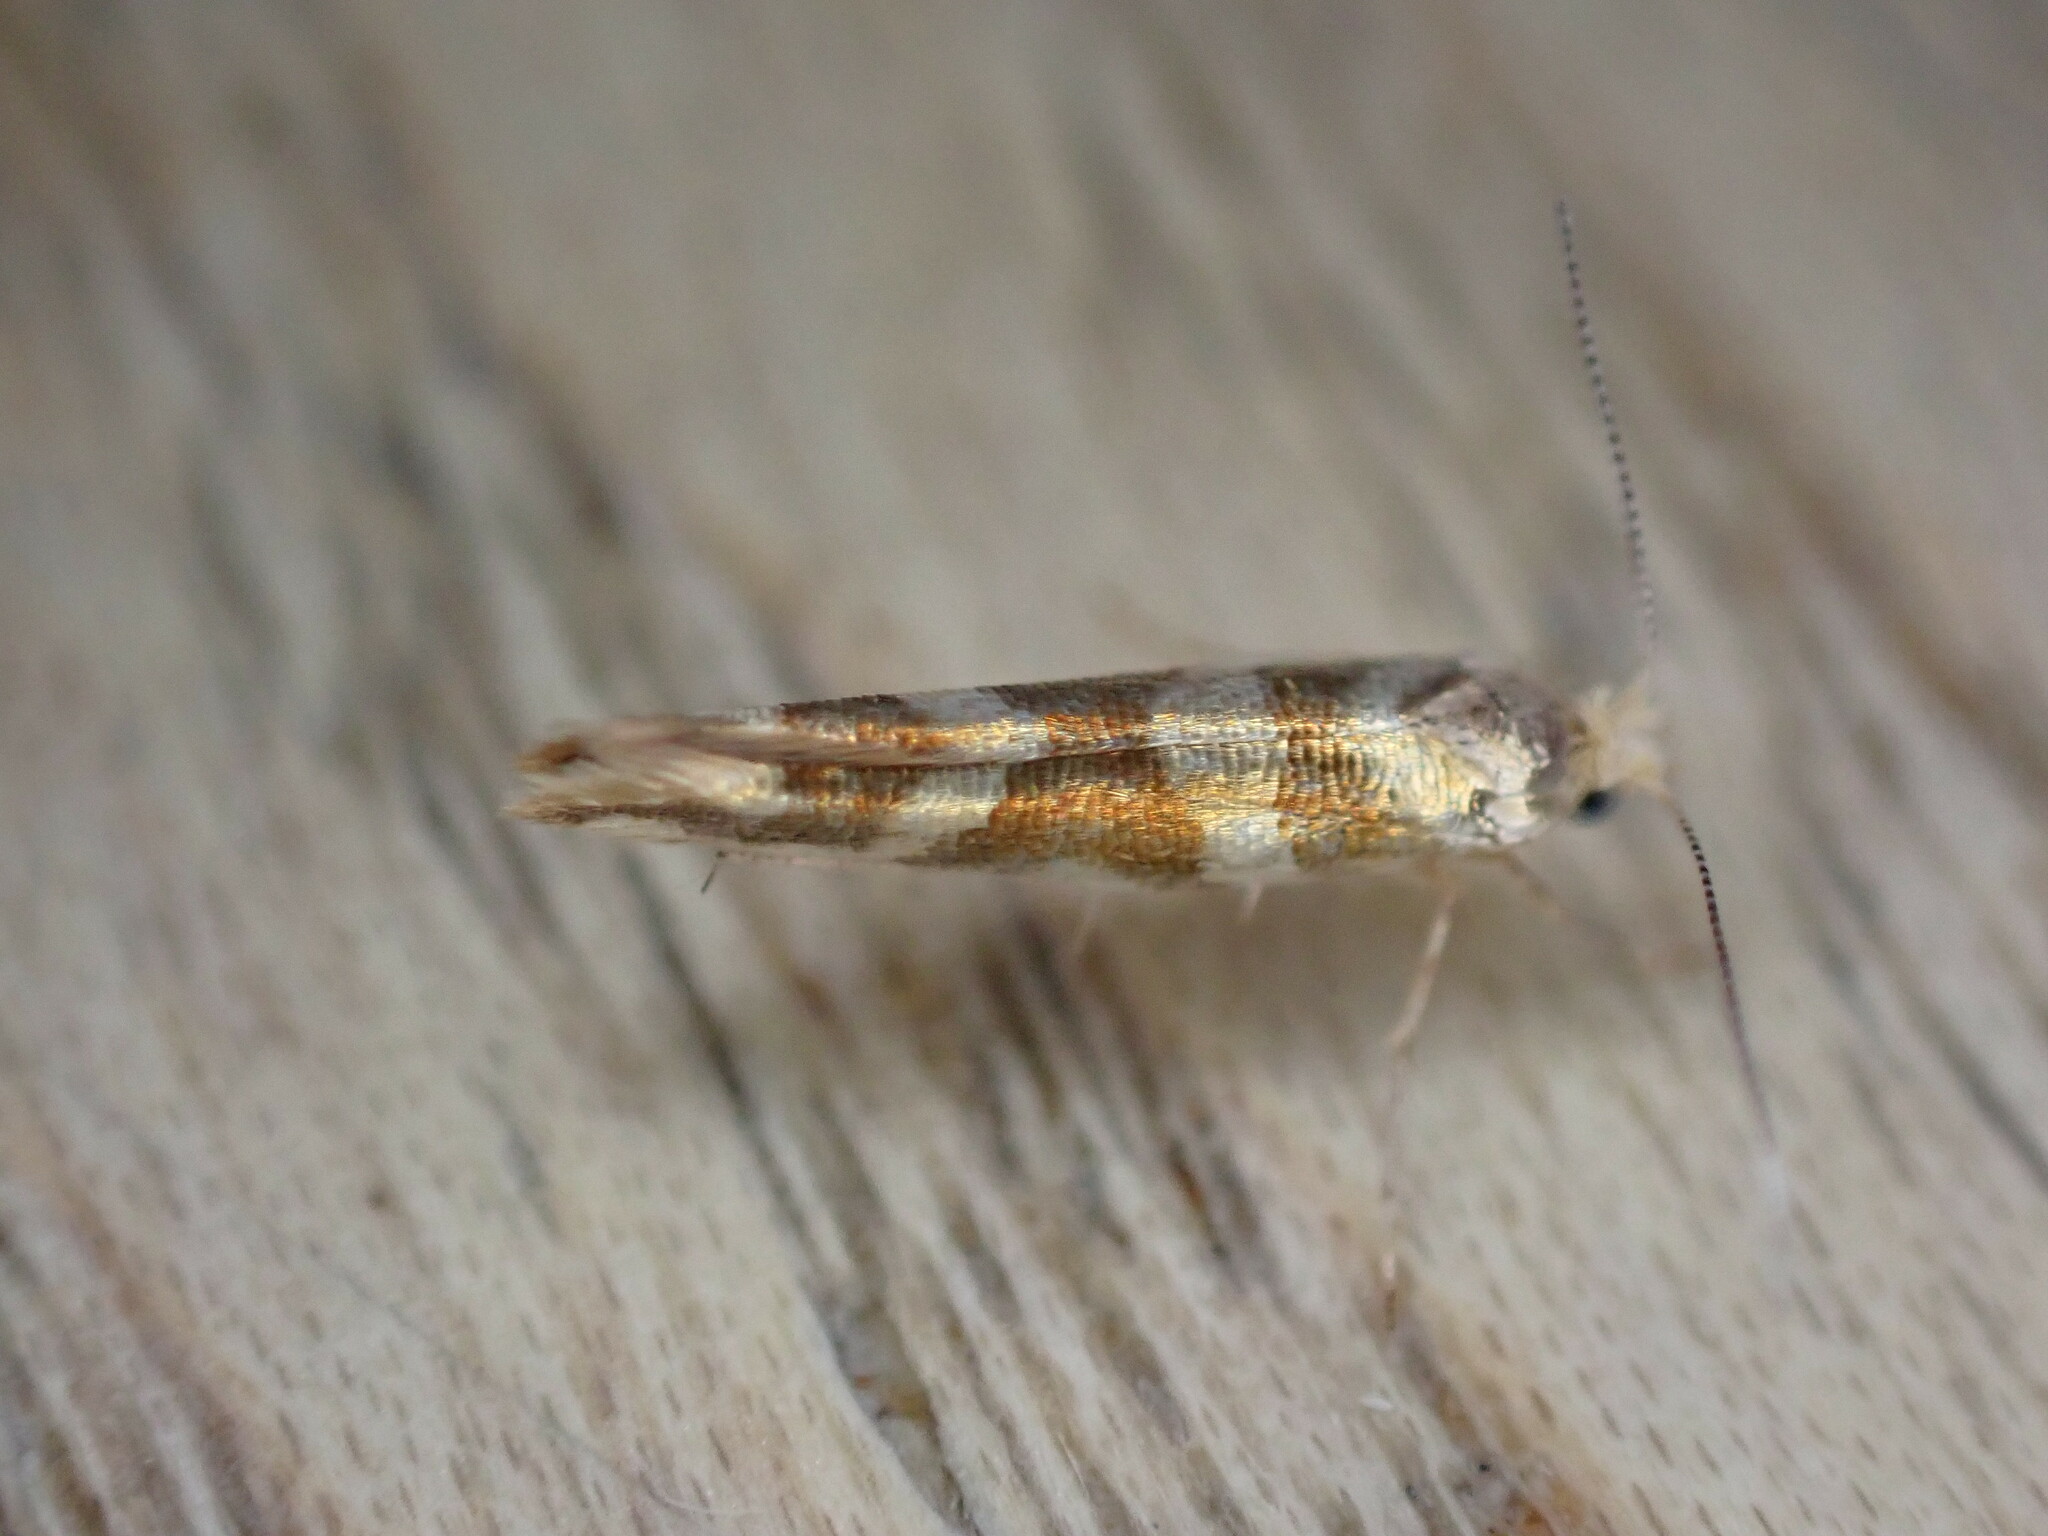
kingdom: Animalia
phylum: Arthropoda
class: Insecta
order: Lepidoptera
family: Argyresthiidae
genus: Argyresthia
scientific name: Argyresthia goedartella
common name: Golden argent
